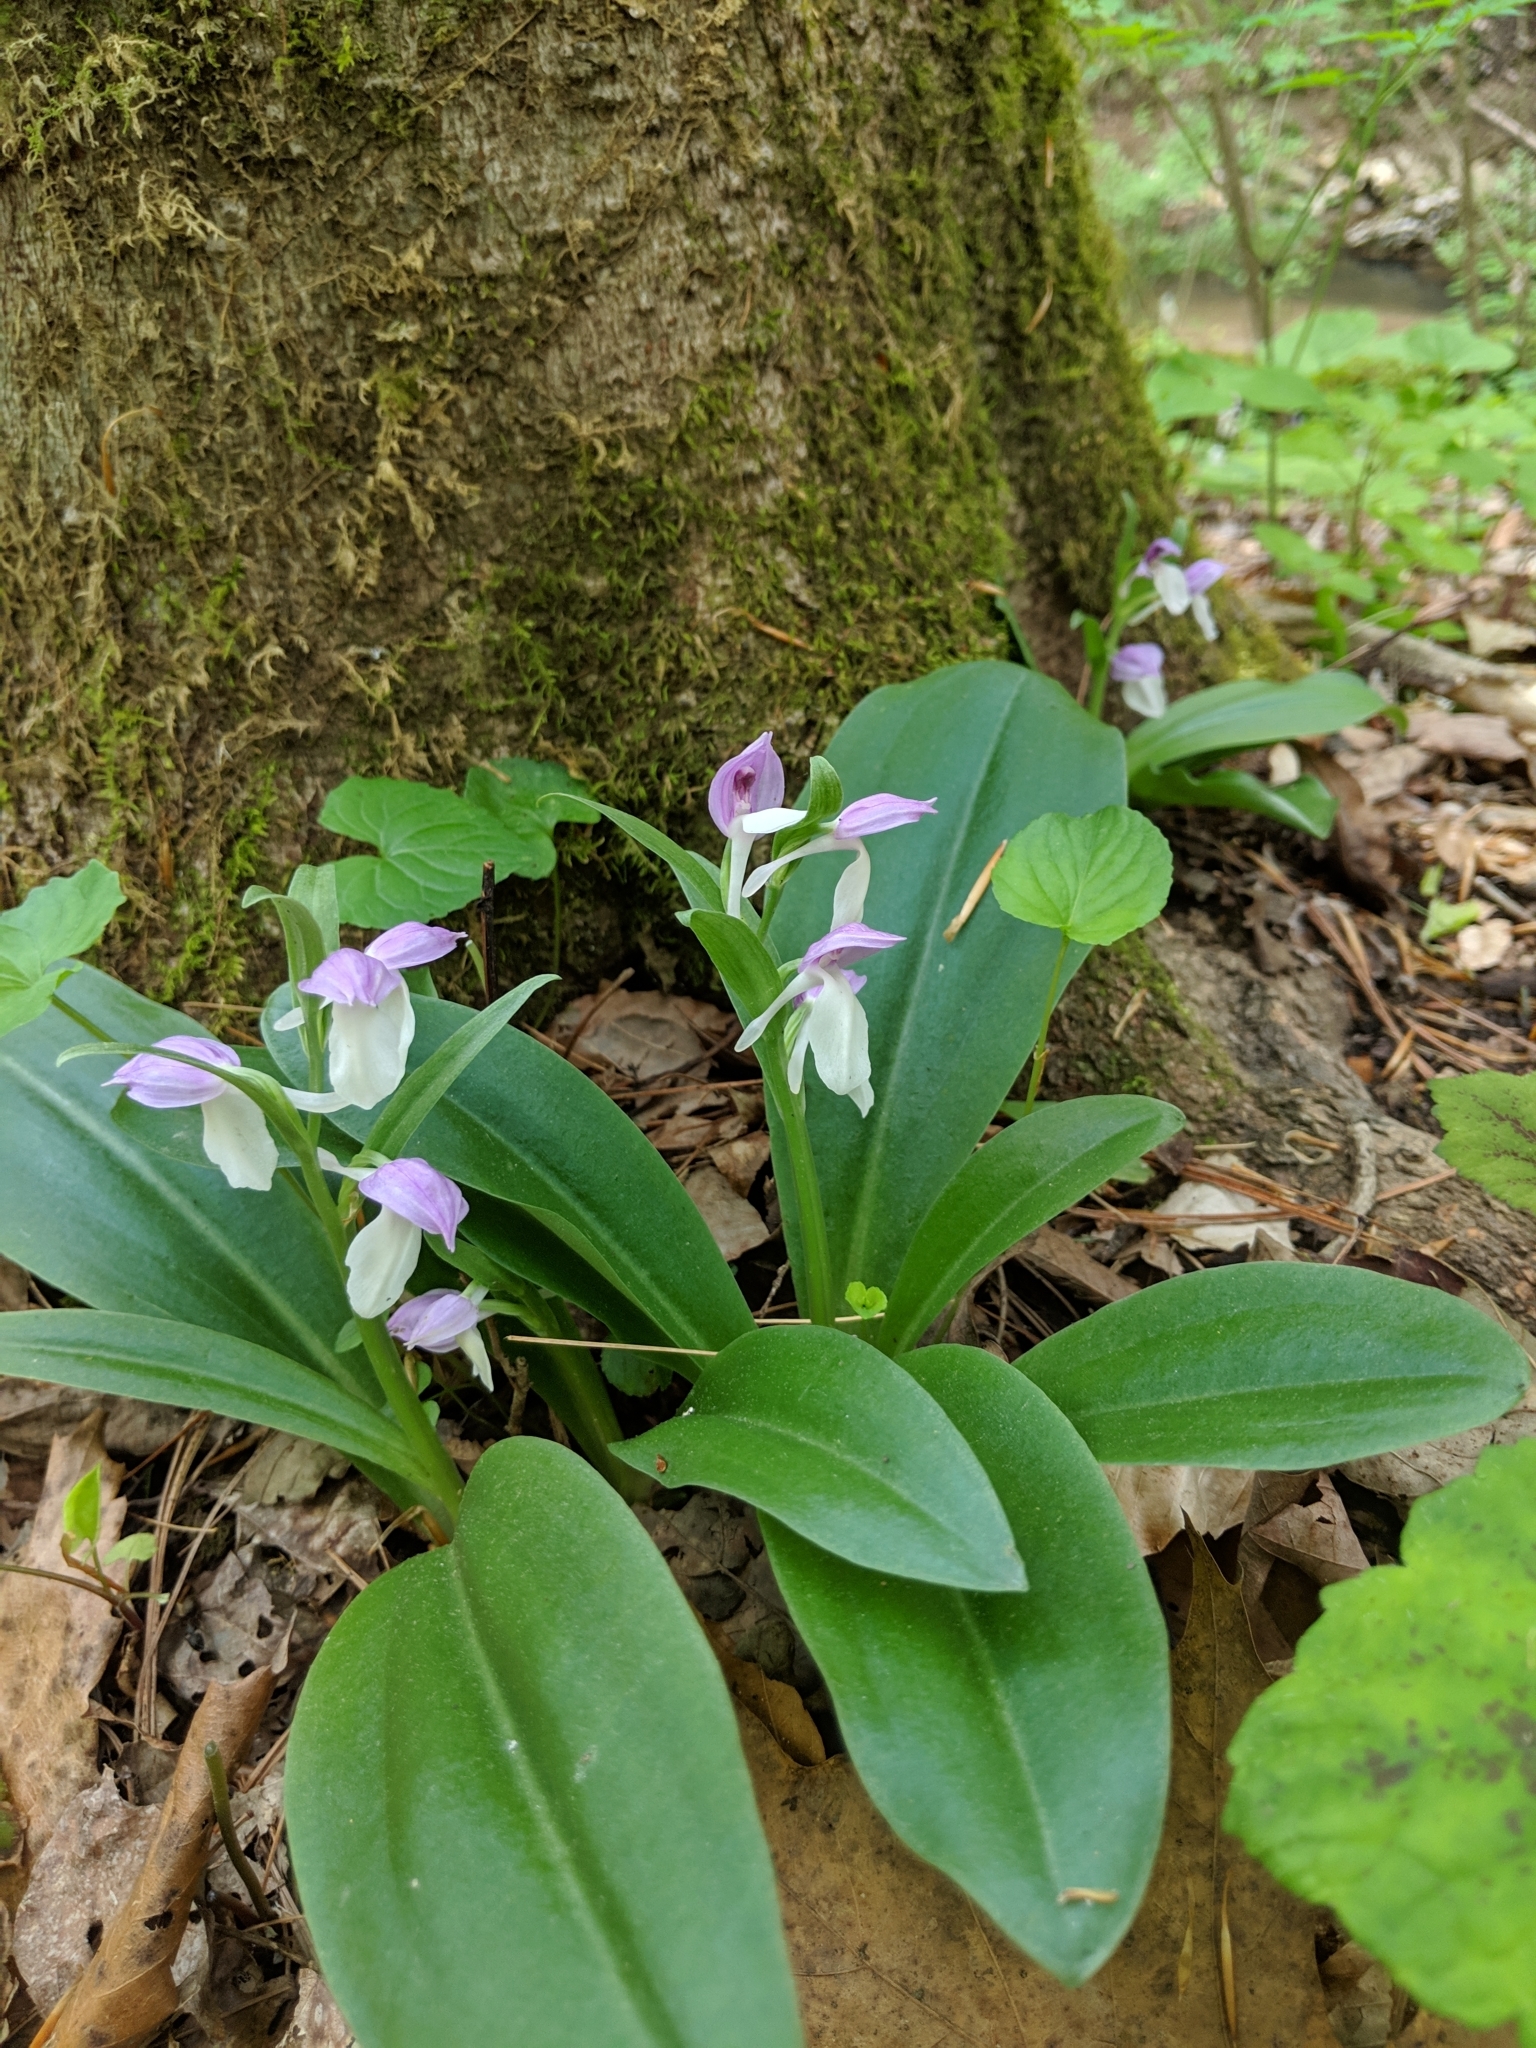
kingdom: Plantae
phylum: Tracheophyta
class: Liliopsida
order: Asparagales
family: Orchidaceae
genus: Galearis
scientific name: Galearis spectabilis
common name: Purple-hooded orchis
